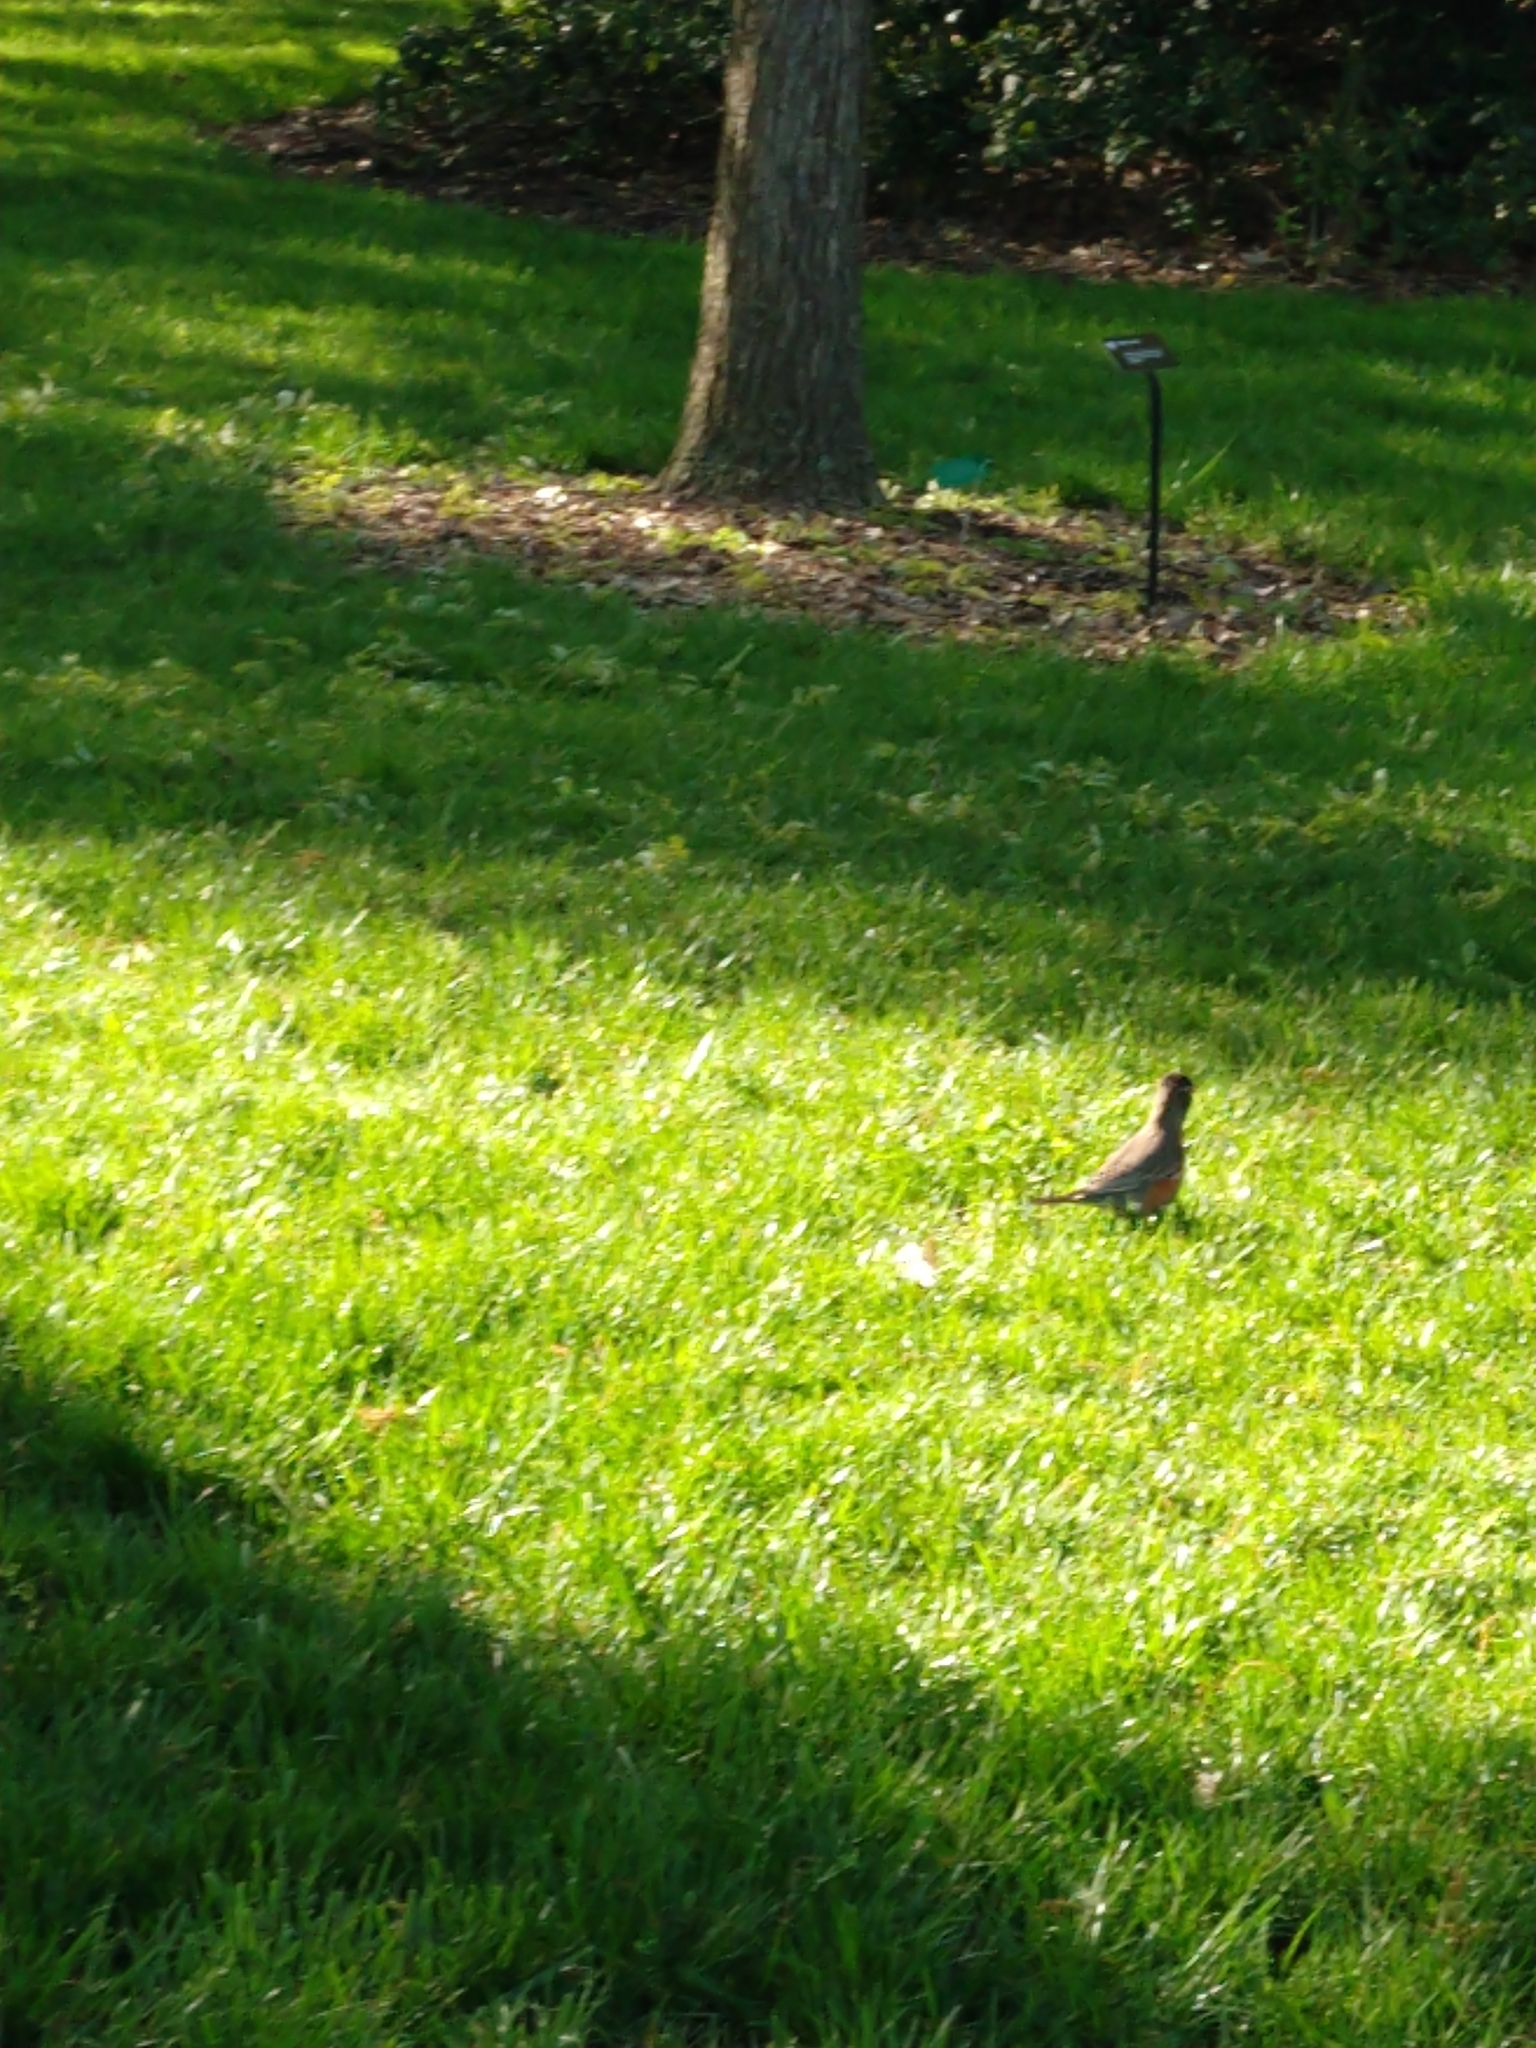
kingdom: Animalia
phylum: Chordata
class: Aves
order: Passeriformes
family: Turdidae
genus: Turdus
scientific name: Turdus migratorius
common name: American robin
